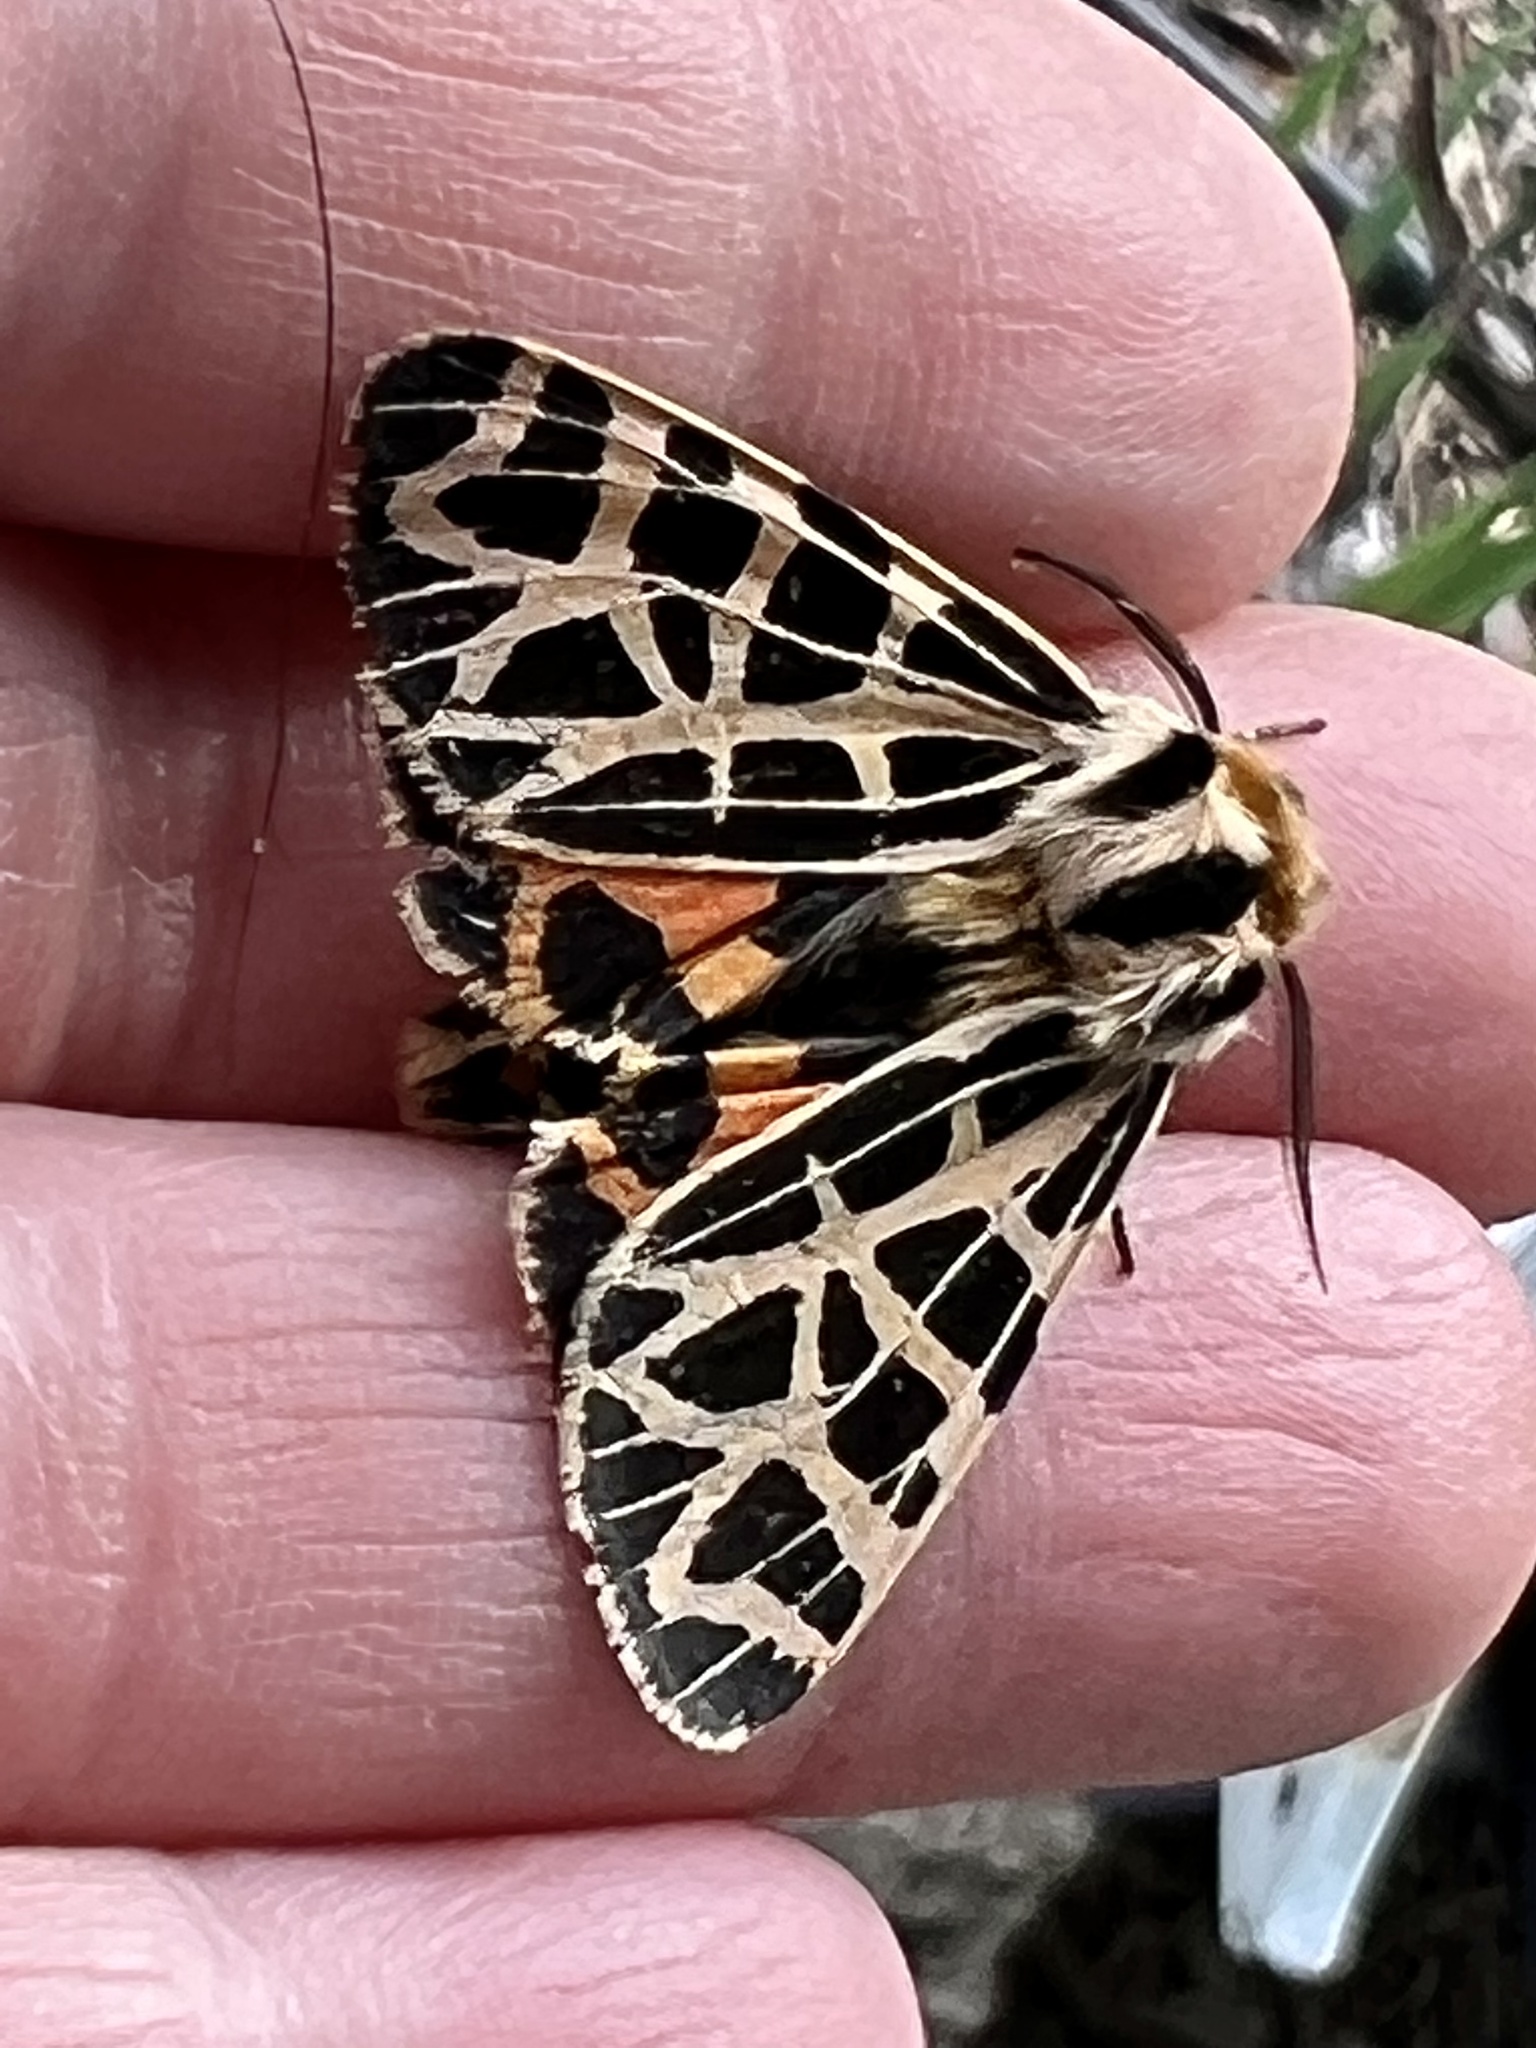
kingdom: Animalia
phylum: Arthropoda
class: Insecta
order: Lepidoptera
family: Erebidae
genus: Apantesis
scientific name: Apantesis
